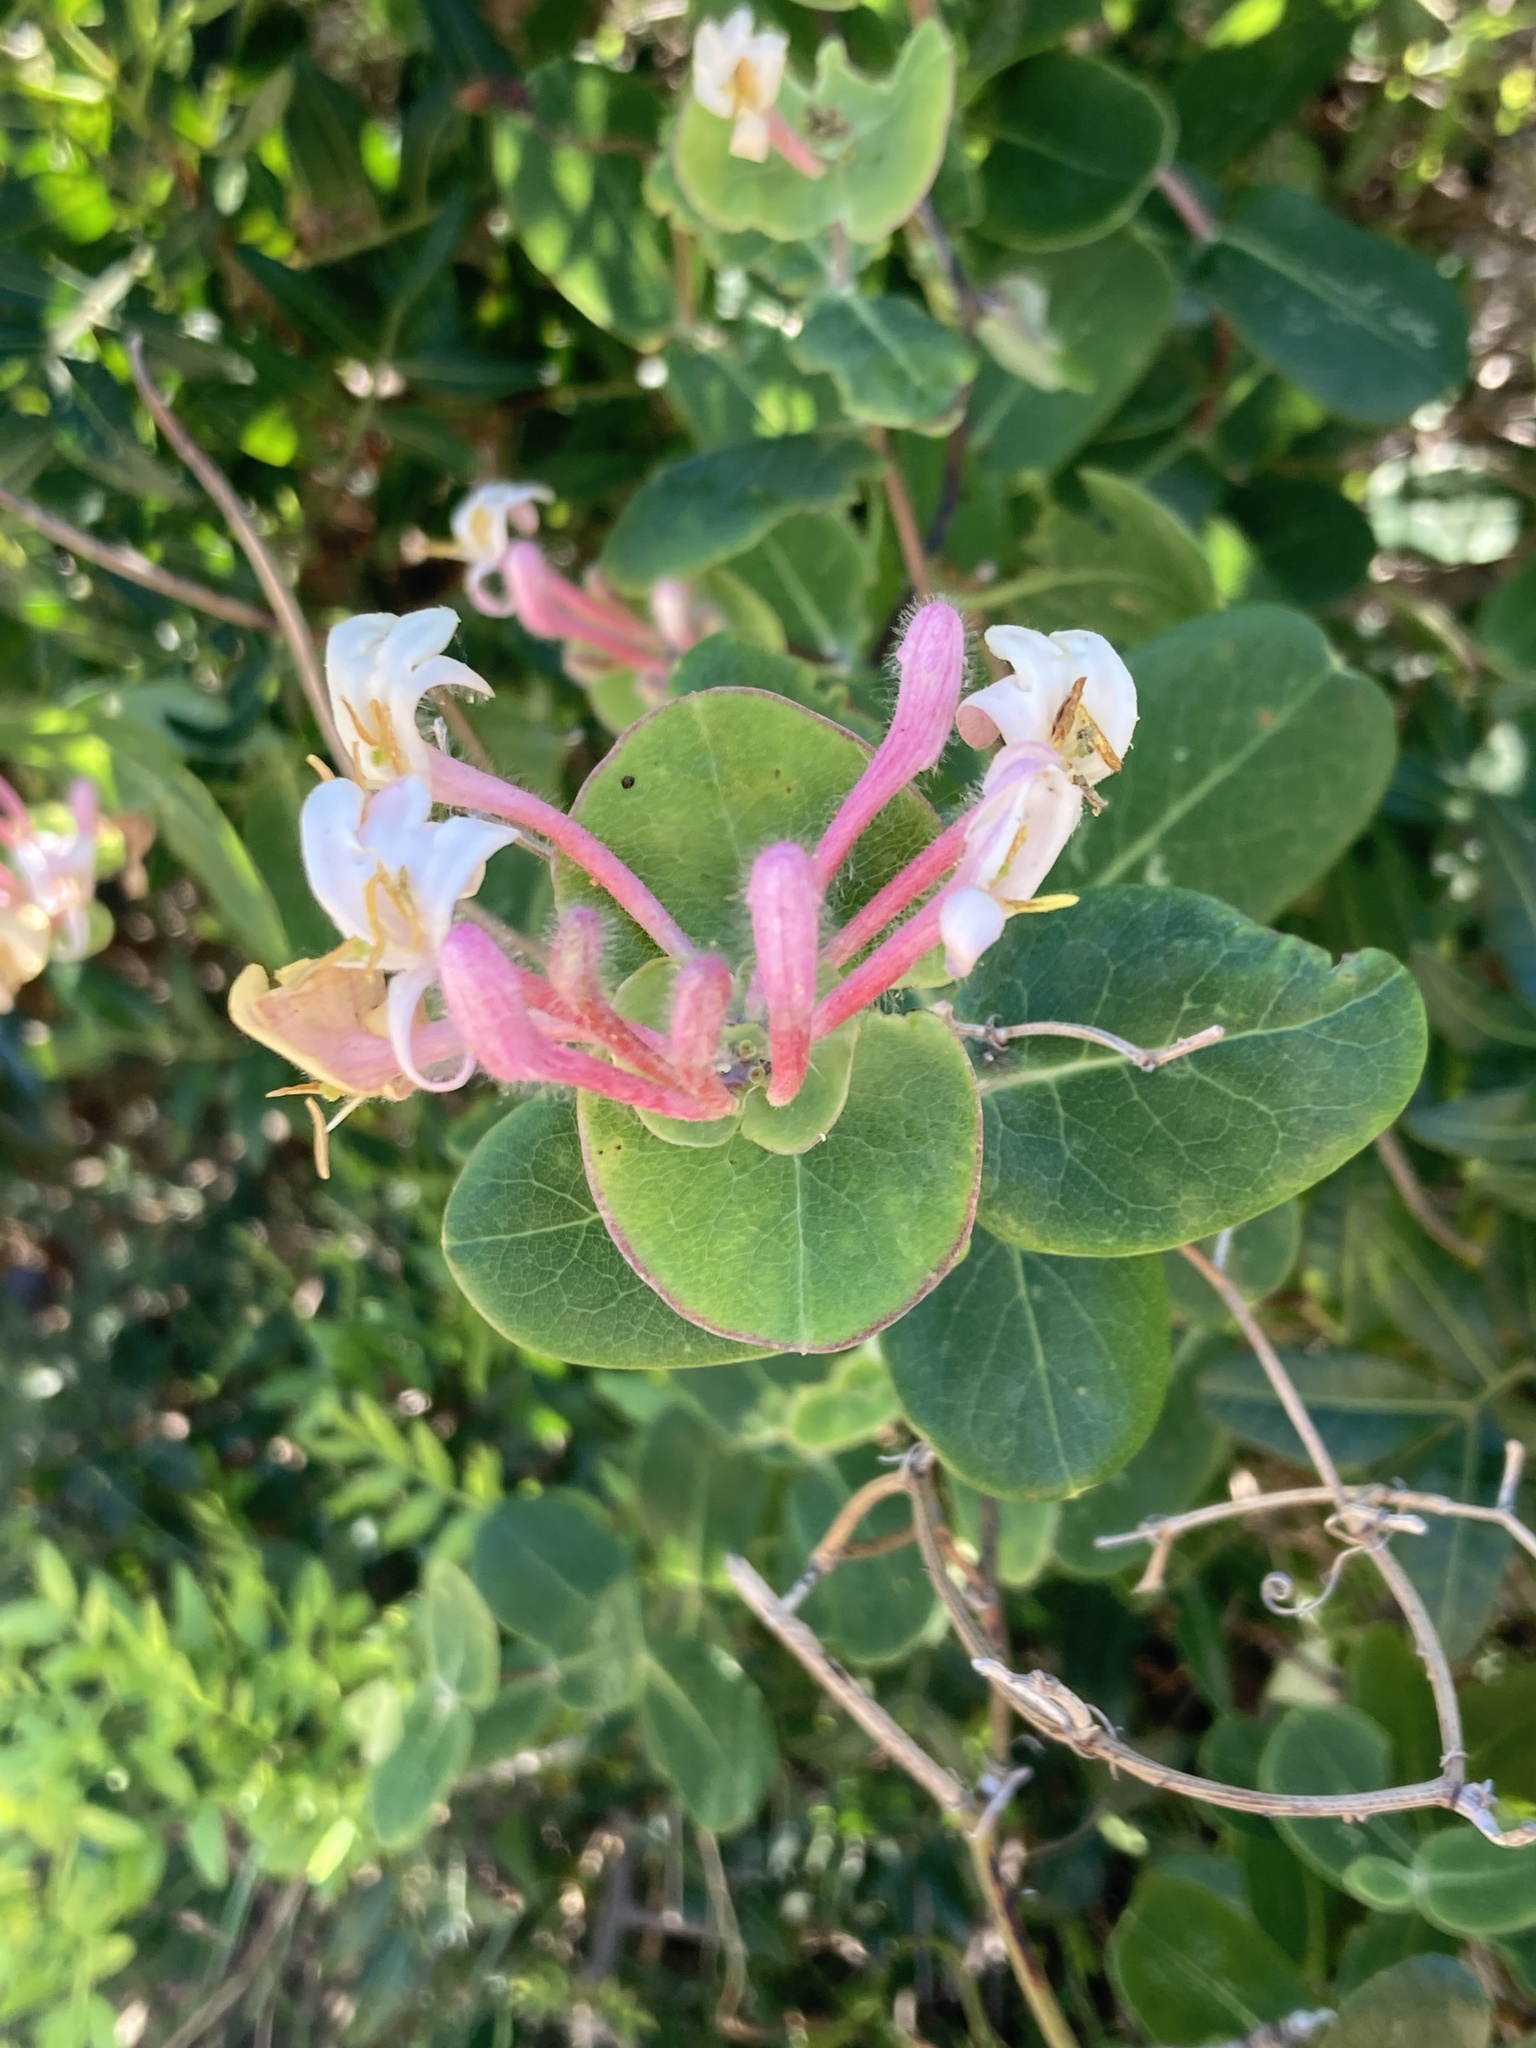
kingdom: Plantae
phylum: Tracheophyta
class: Magnoliopsida
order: Dipsacales
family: Caprifoliaceae
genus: Lonicera
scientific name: Lonicera implexa
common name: Minorca honeysuckle
